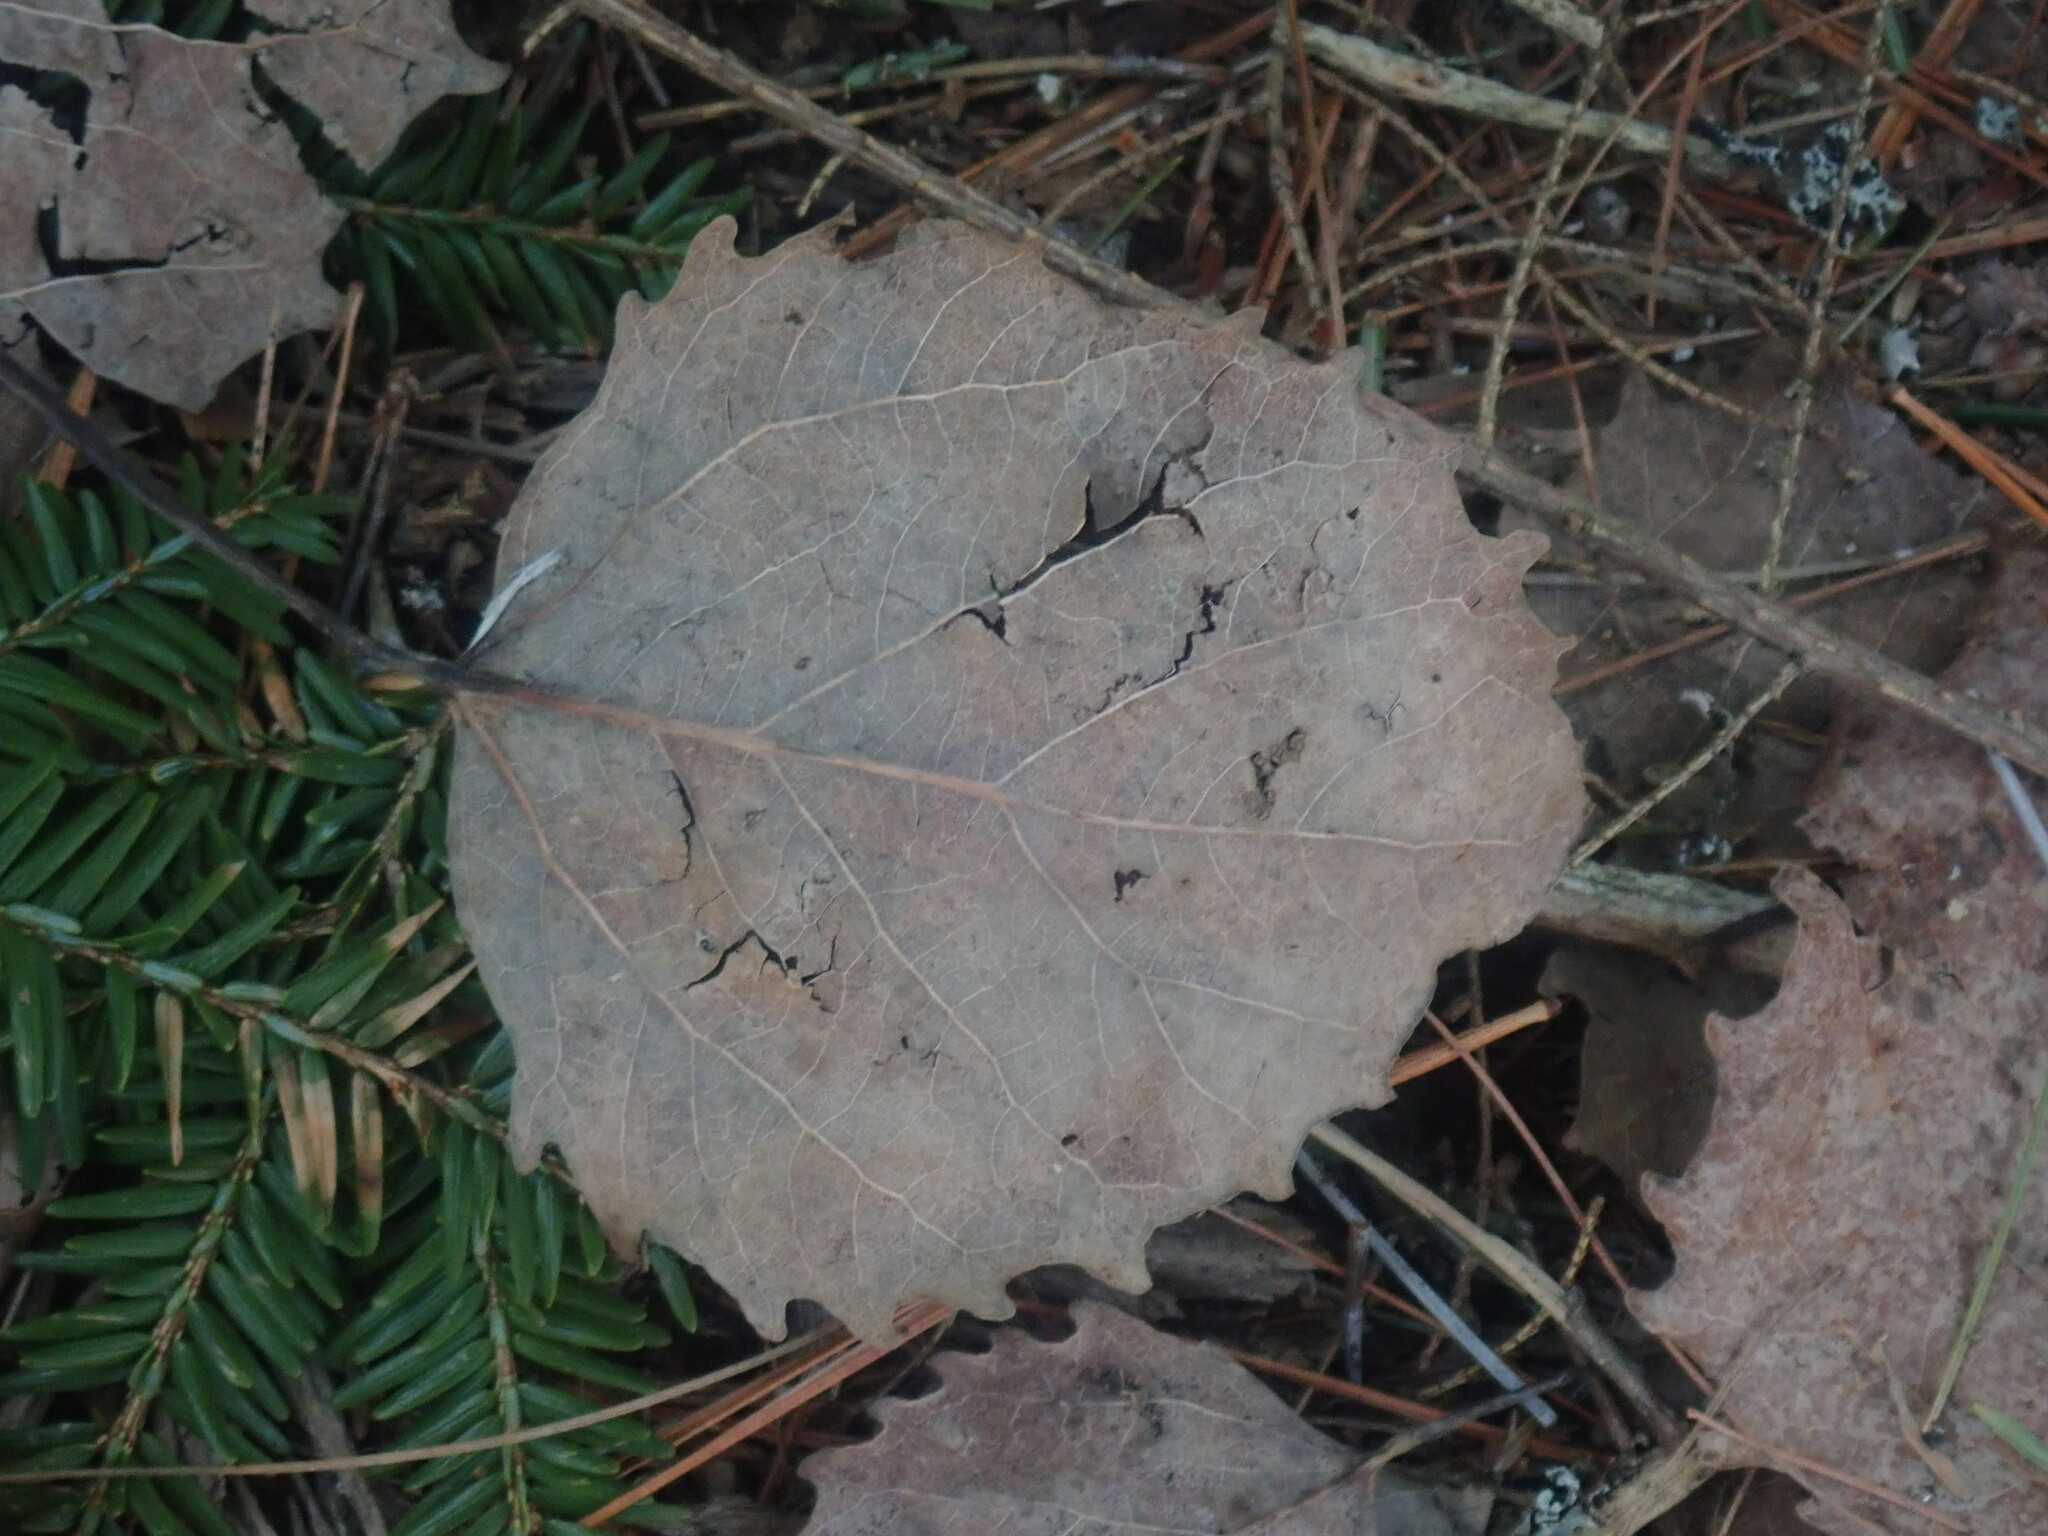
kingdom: Plantae
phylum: Tracheophyta
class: Magnoliopsida
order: Malpighiales
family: Salicaceae
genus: Populus
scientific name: Populus grandidentata
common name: Bigtooth aspen
